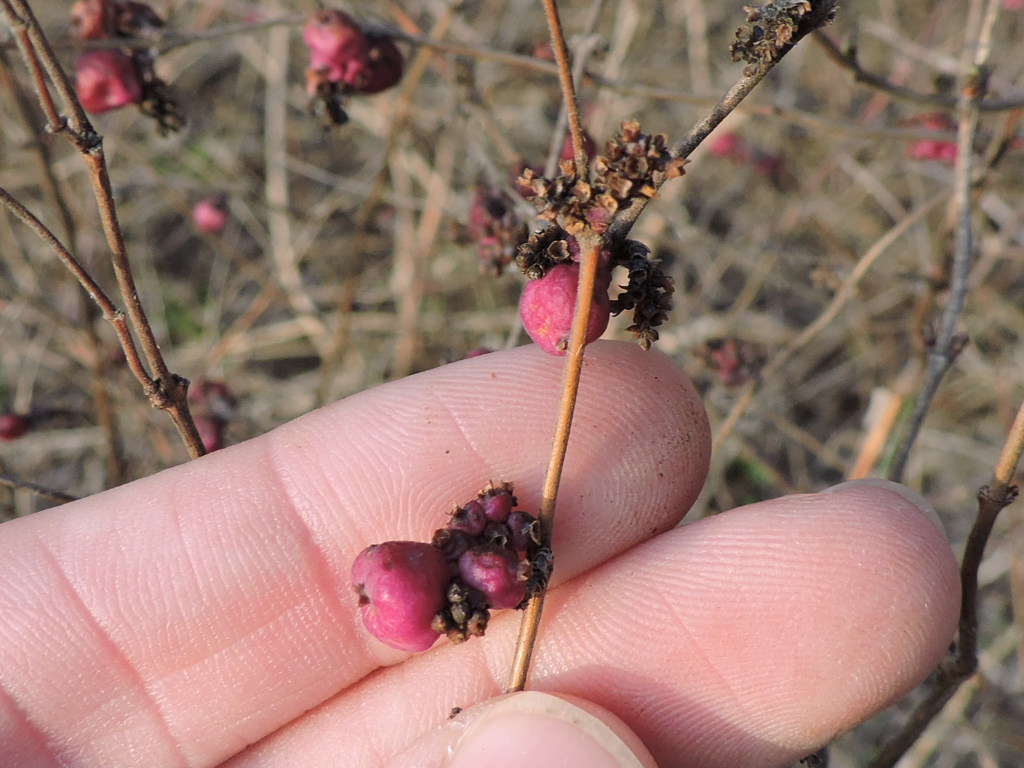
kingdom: Plantae
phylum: Tracheophyta
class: Magnoliopsida
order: Dipsacales
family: Caprifoliaceae
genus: Symphoricarpos
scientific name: Symphoricarpos orbiculatus
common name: Coralberry
